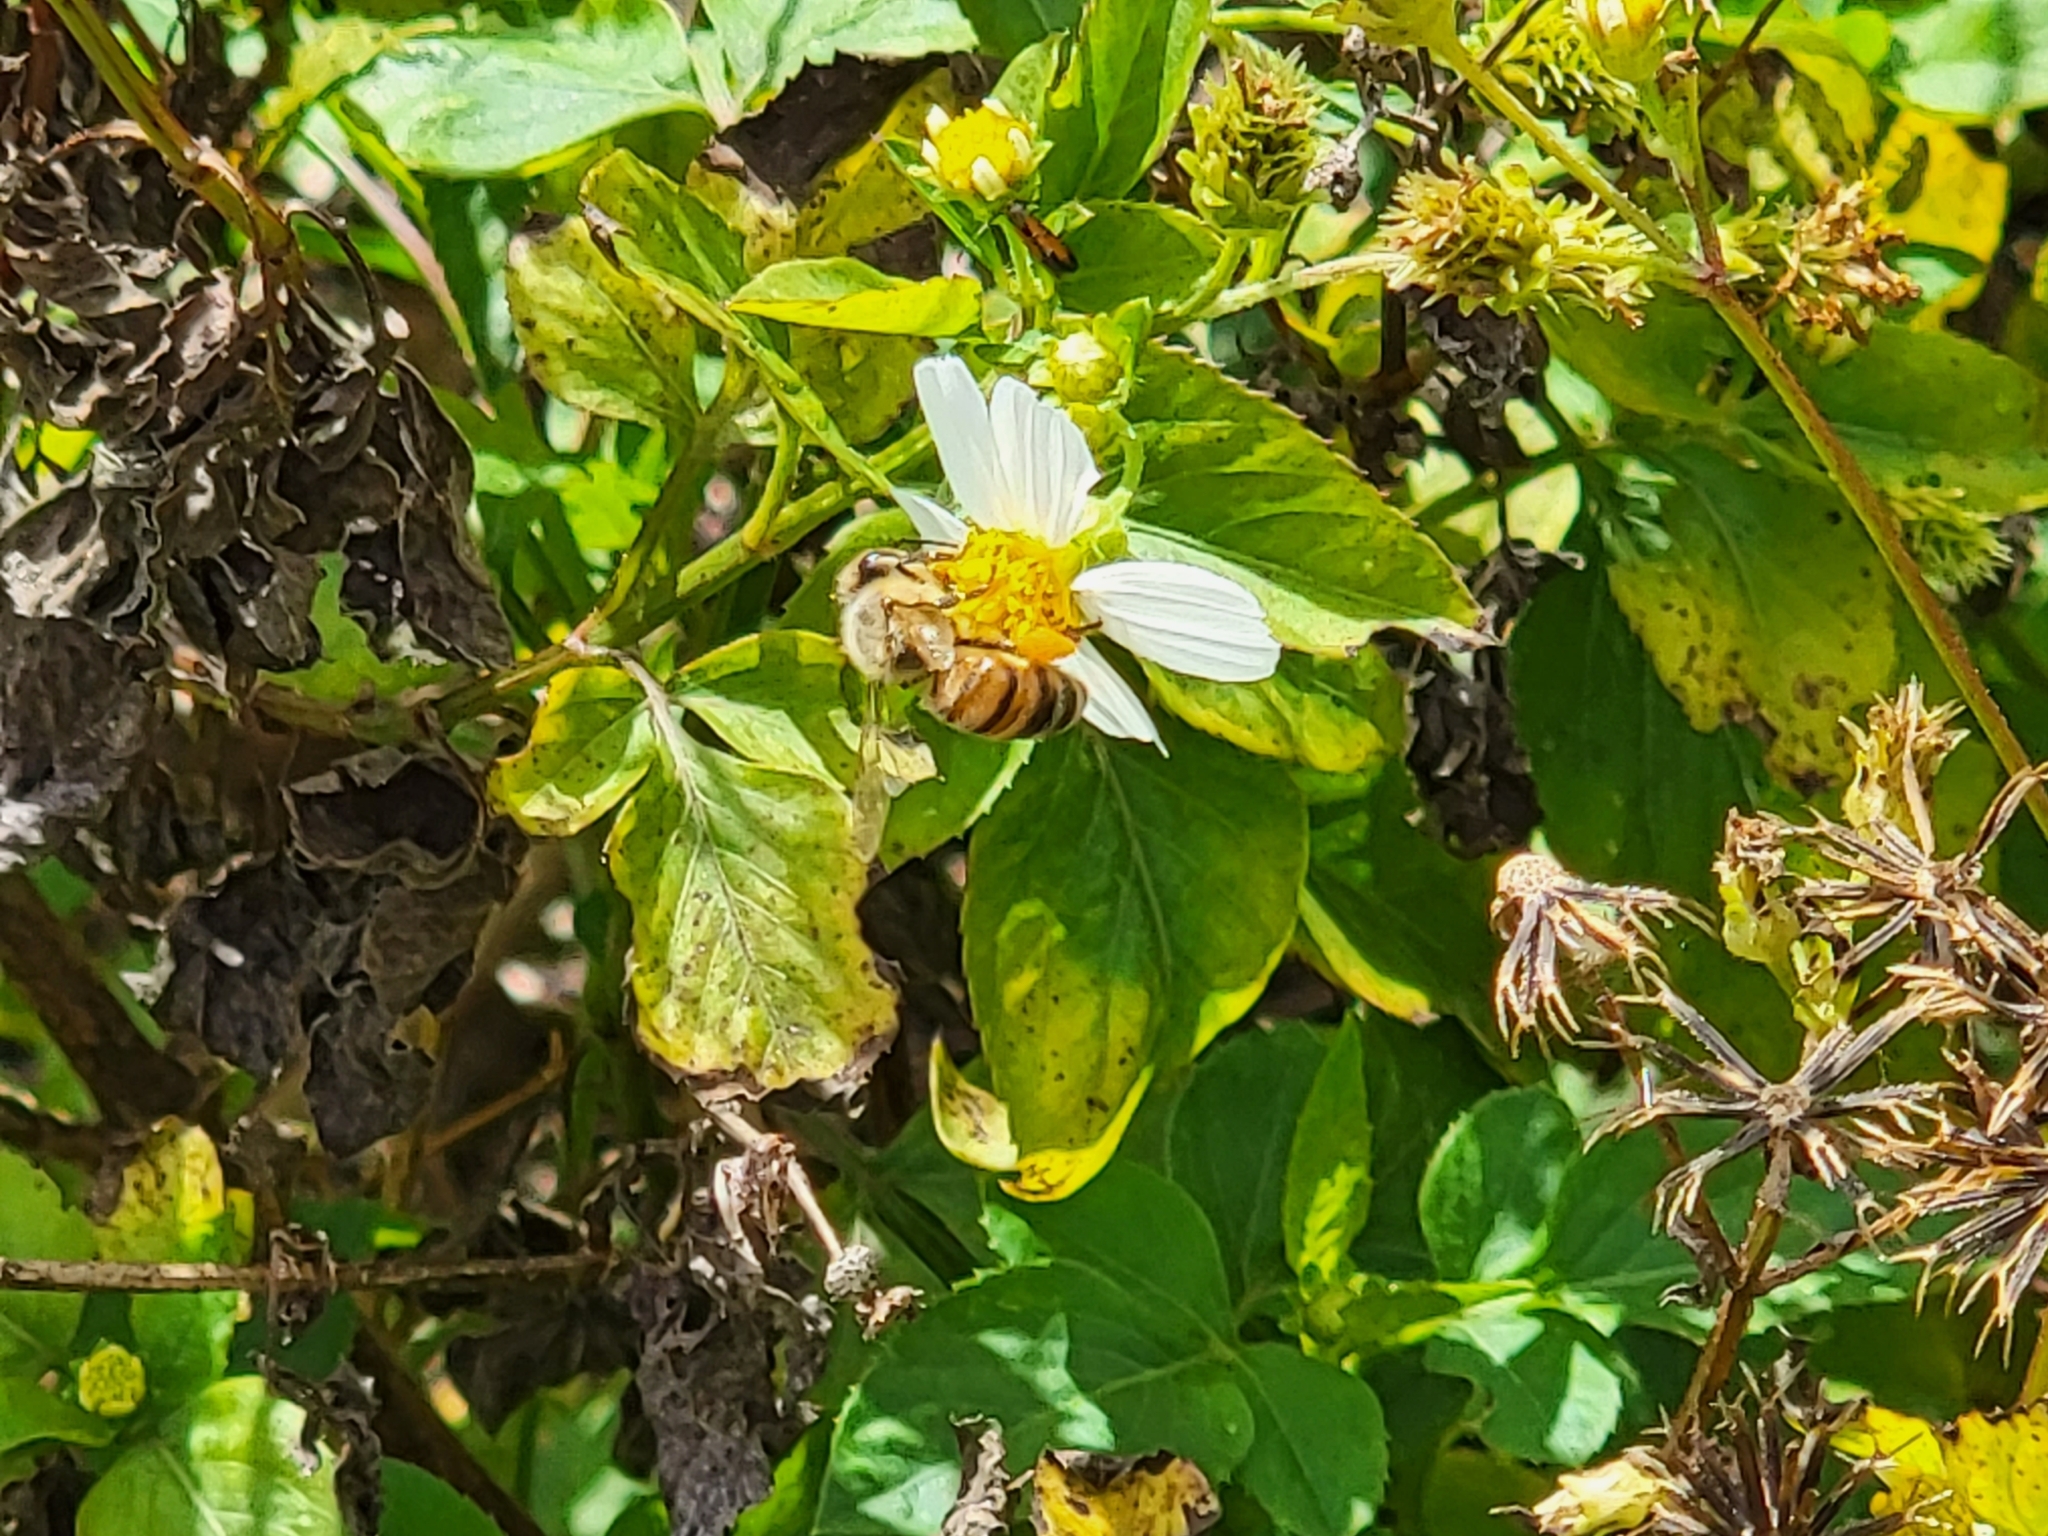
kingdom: Animalia
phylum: Arthropoda
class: Insecta
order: Hymenoptera
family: Apidae
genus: Apis
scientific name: Apis mellifera
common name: Honey bee
